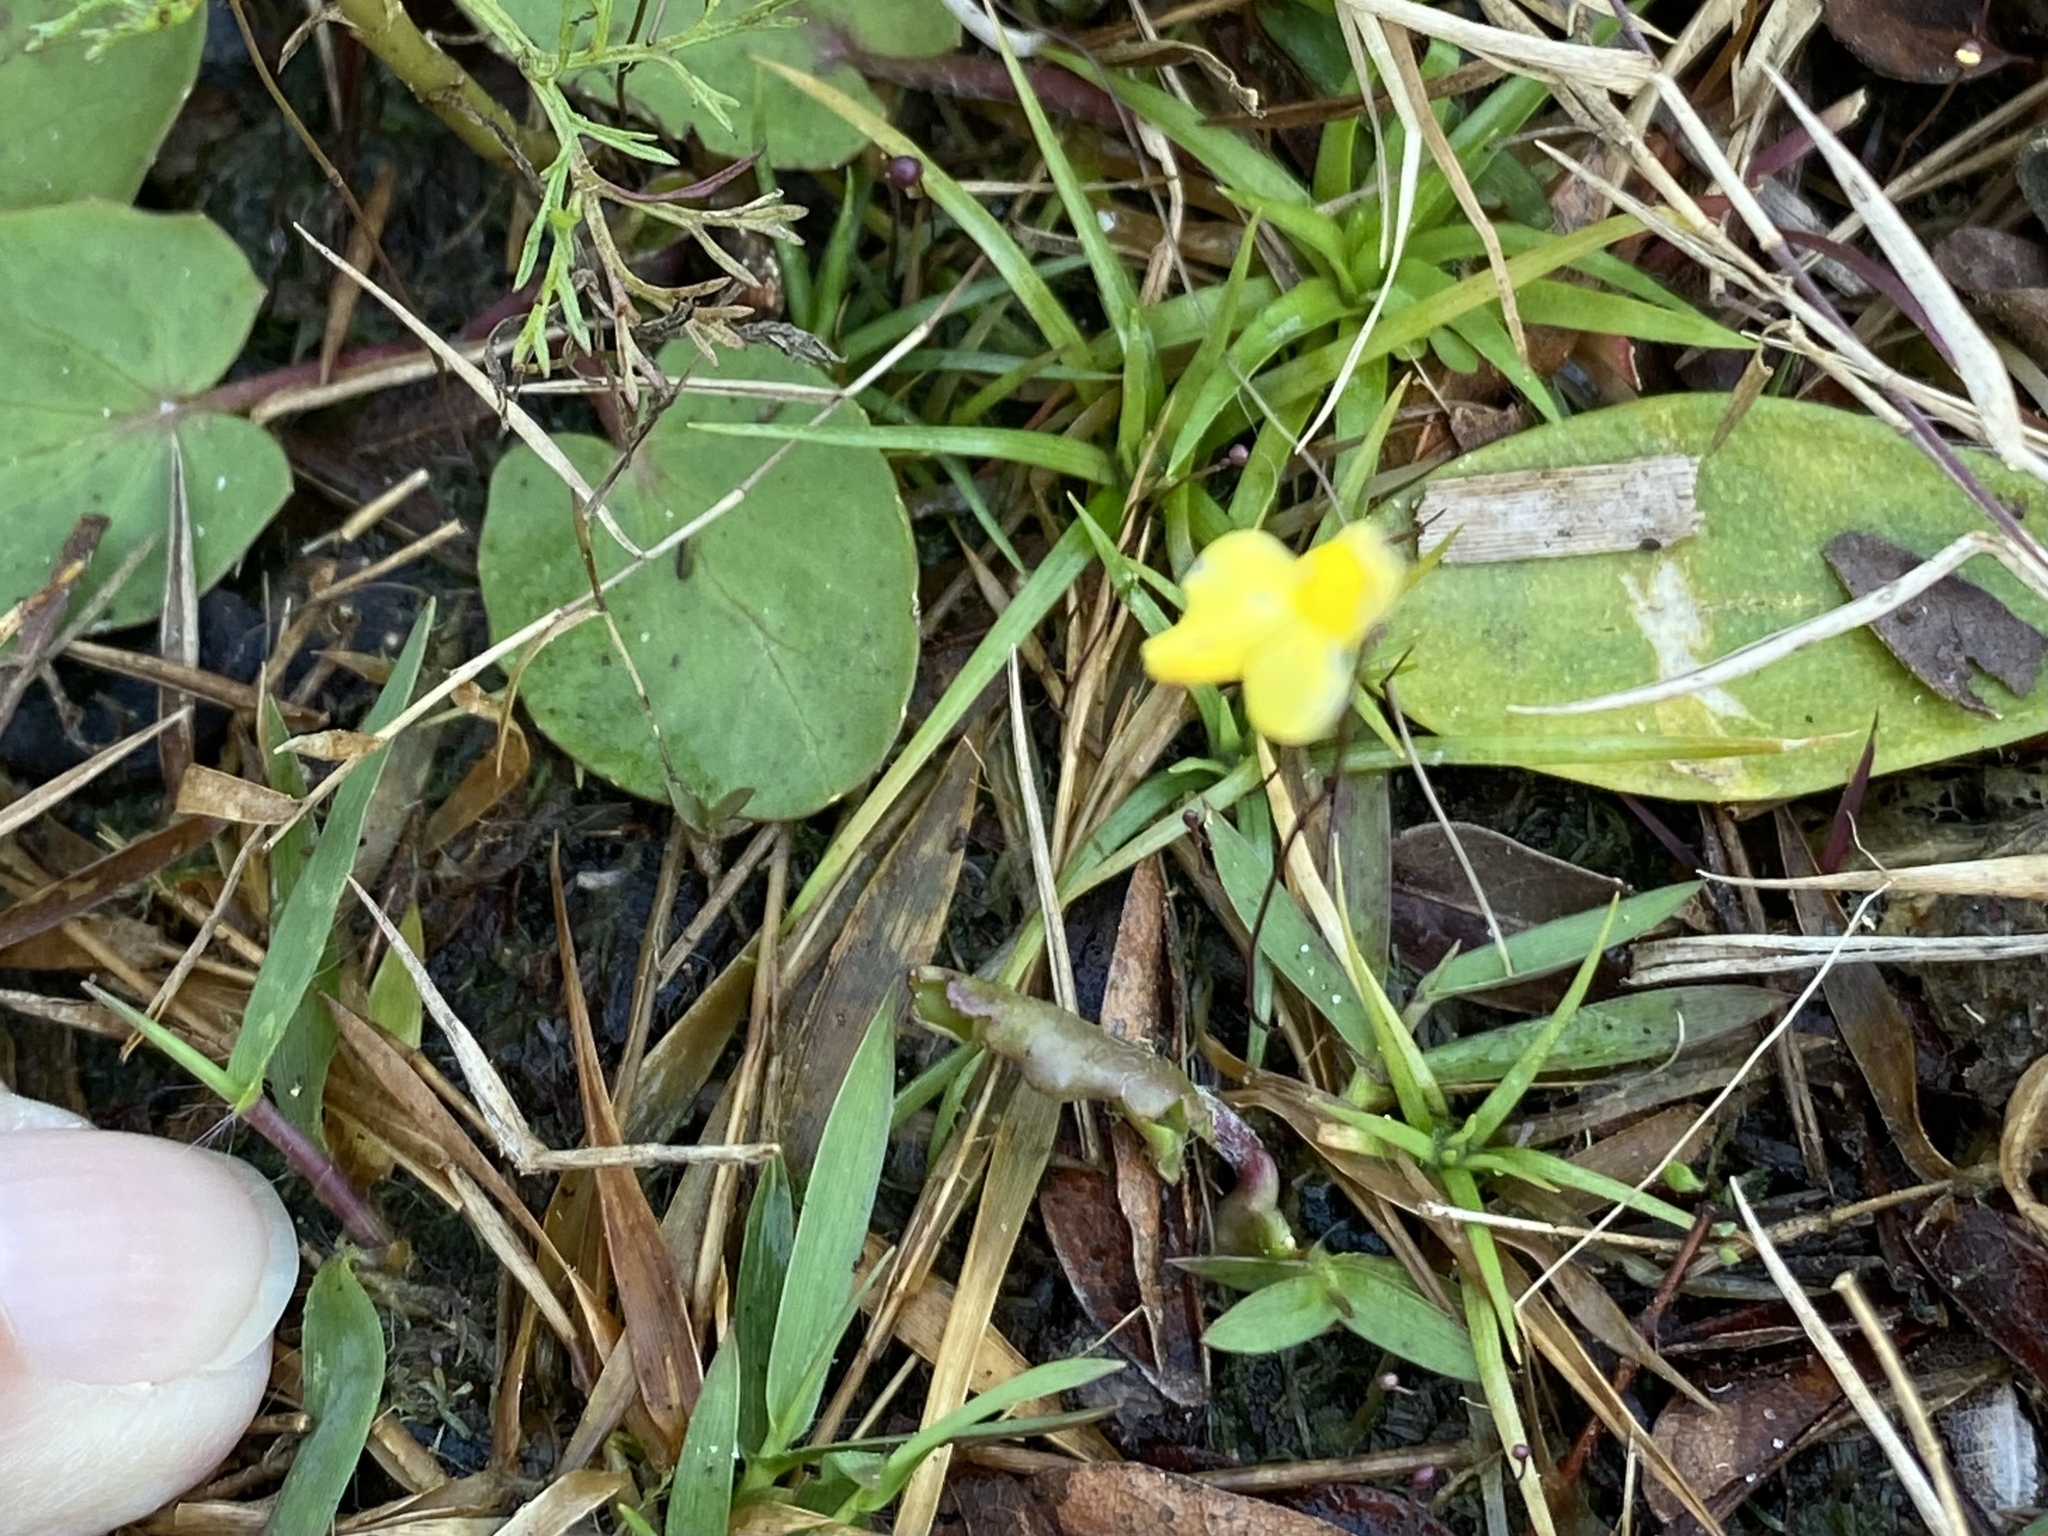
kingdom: Plantae
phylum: Tracheophyta
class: Magnoliopsida
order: Lamiales
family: Lentibulariaceae
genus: Utricularia
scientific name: Utricularia subulata
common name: Tiny bladderwort
